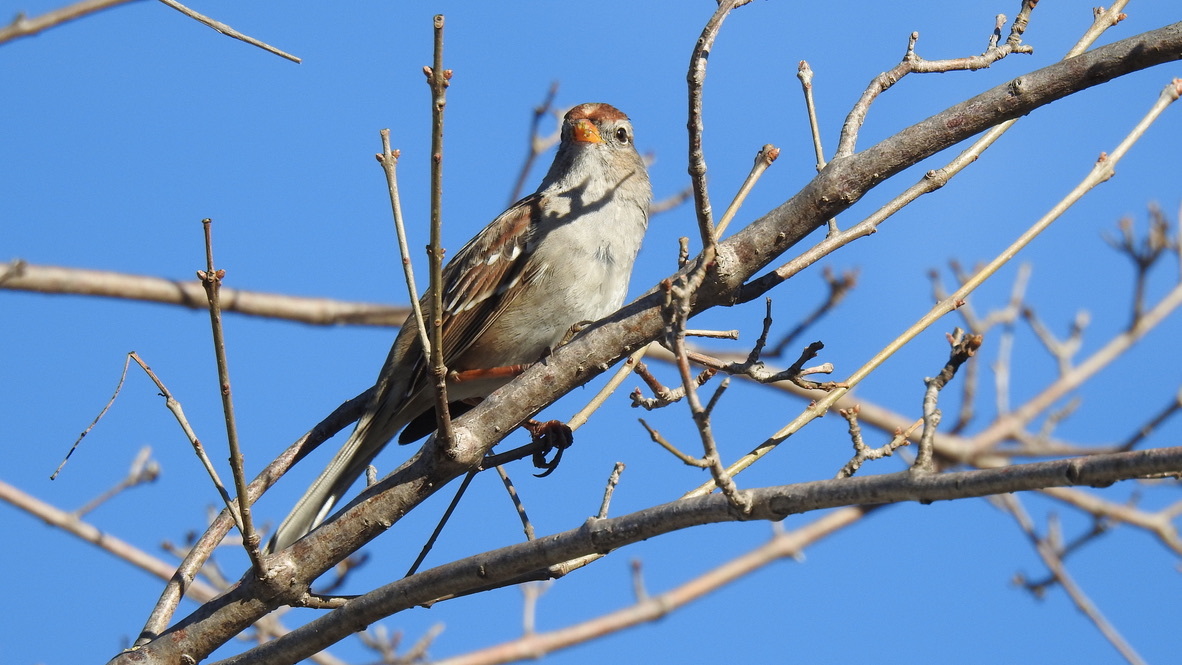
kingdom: Animalia
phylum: Chordata
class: Aves
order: Passeriformes
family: Passerellidae
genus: Zonotrichia
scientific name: Zonotrichia leucophrys
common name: White-crowned sparrow
